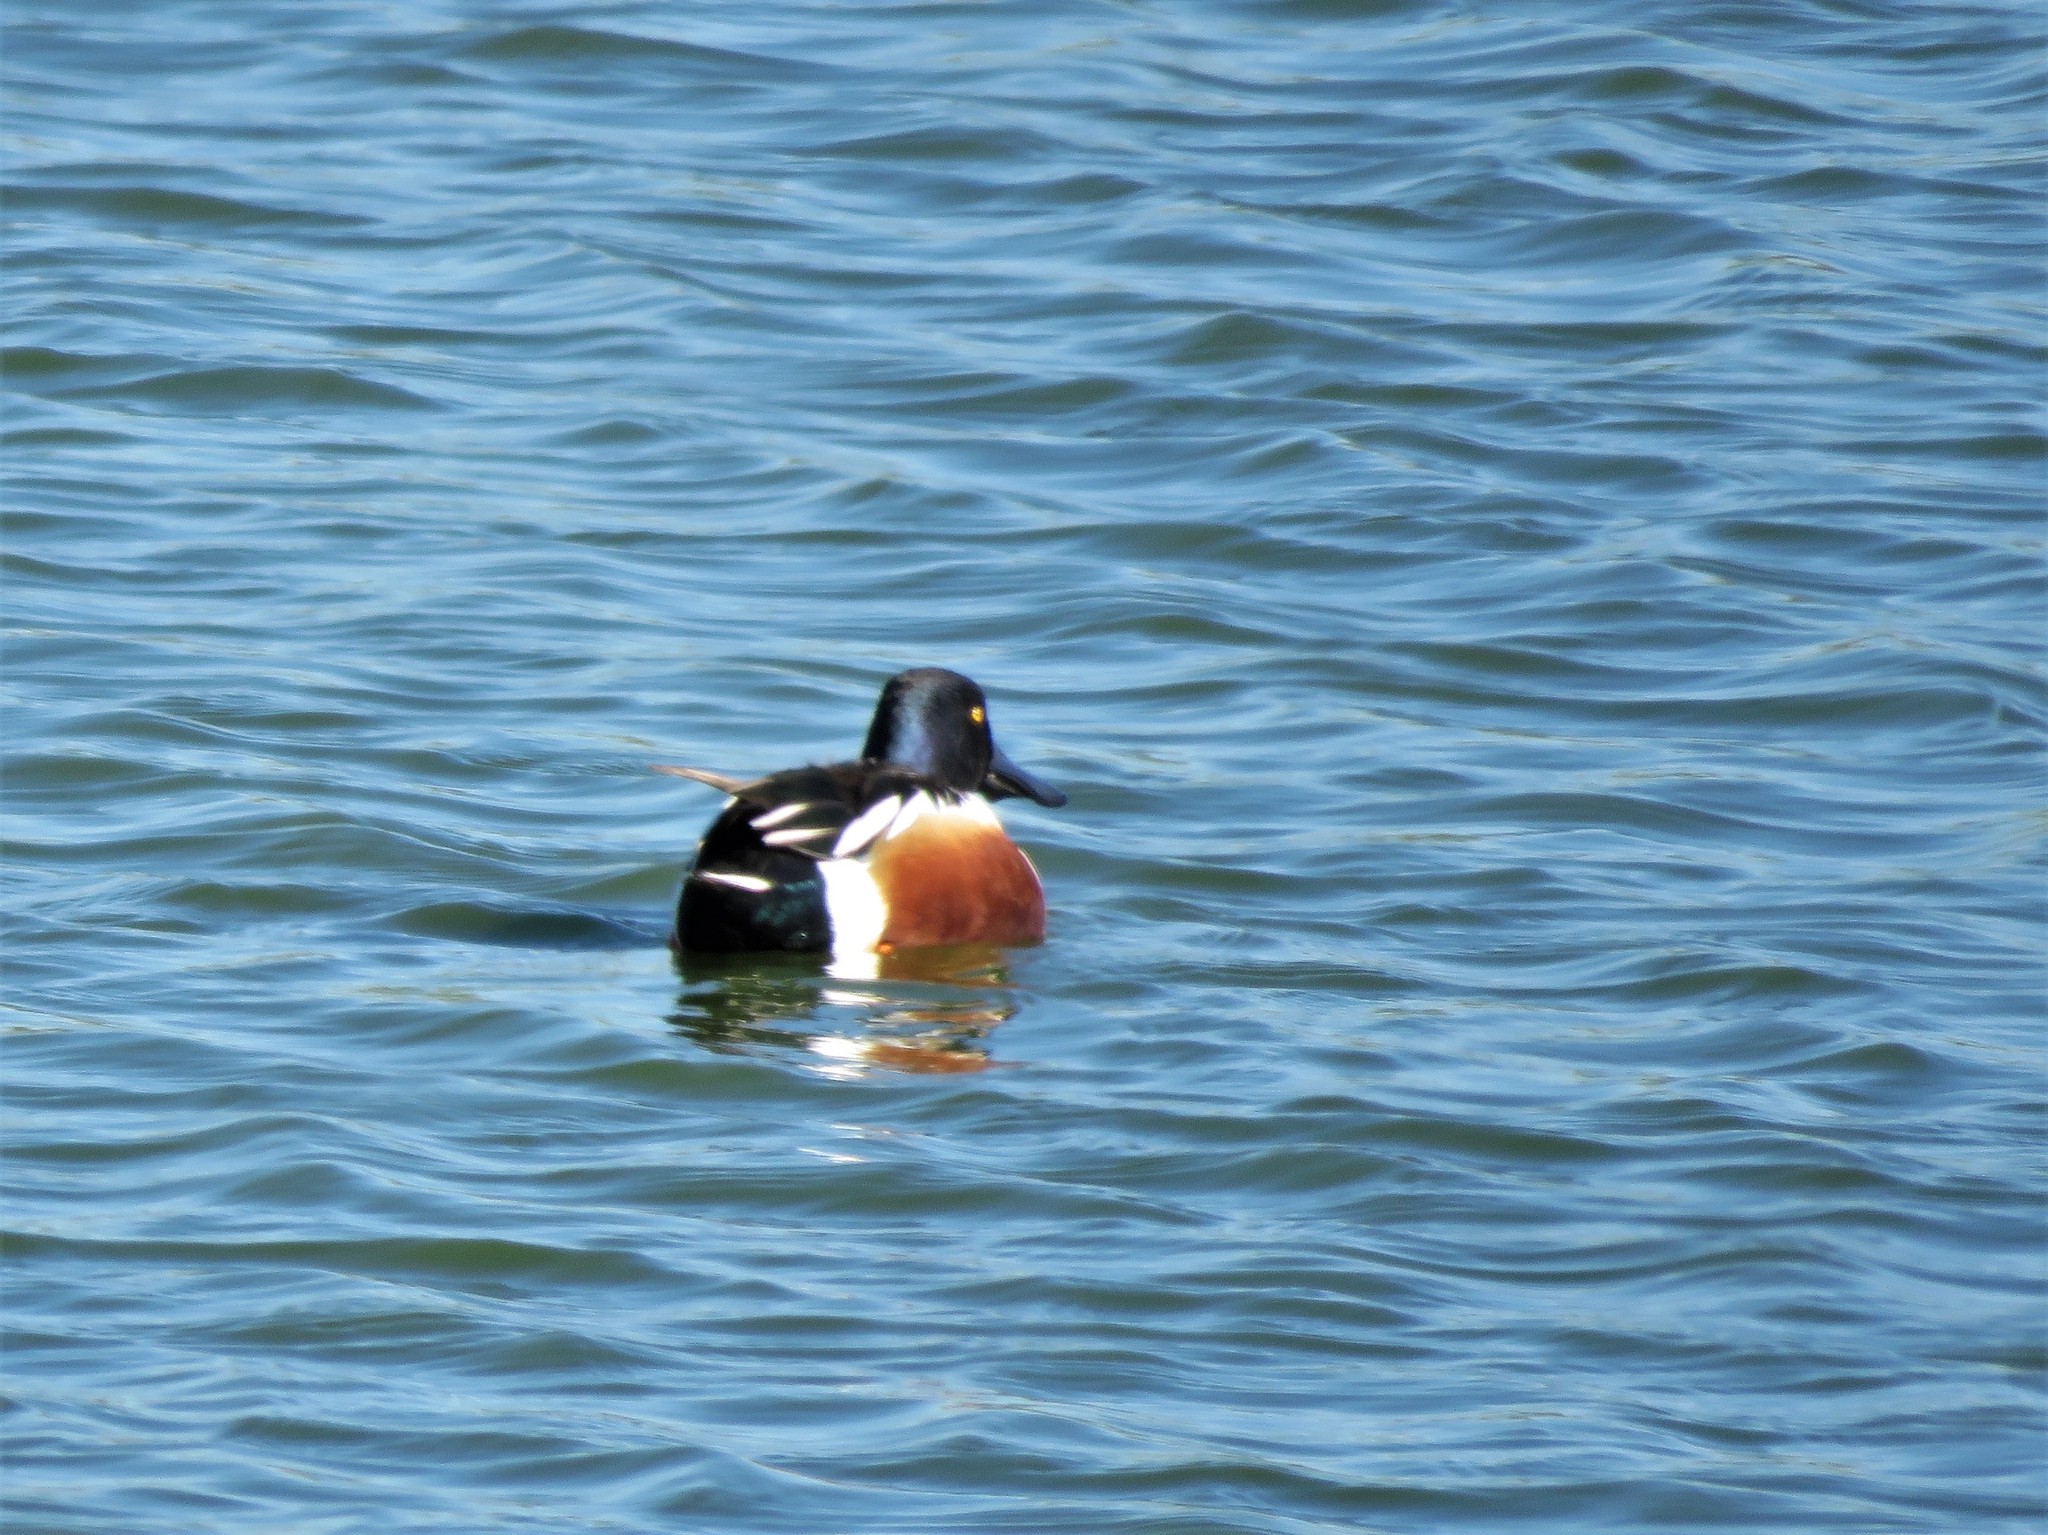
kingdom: Animalia
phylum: Chordata
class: Aves
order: Anseriformes
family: Anatidae
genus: Spatula
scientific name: Spatula clypeata
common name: Northern shoveler
